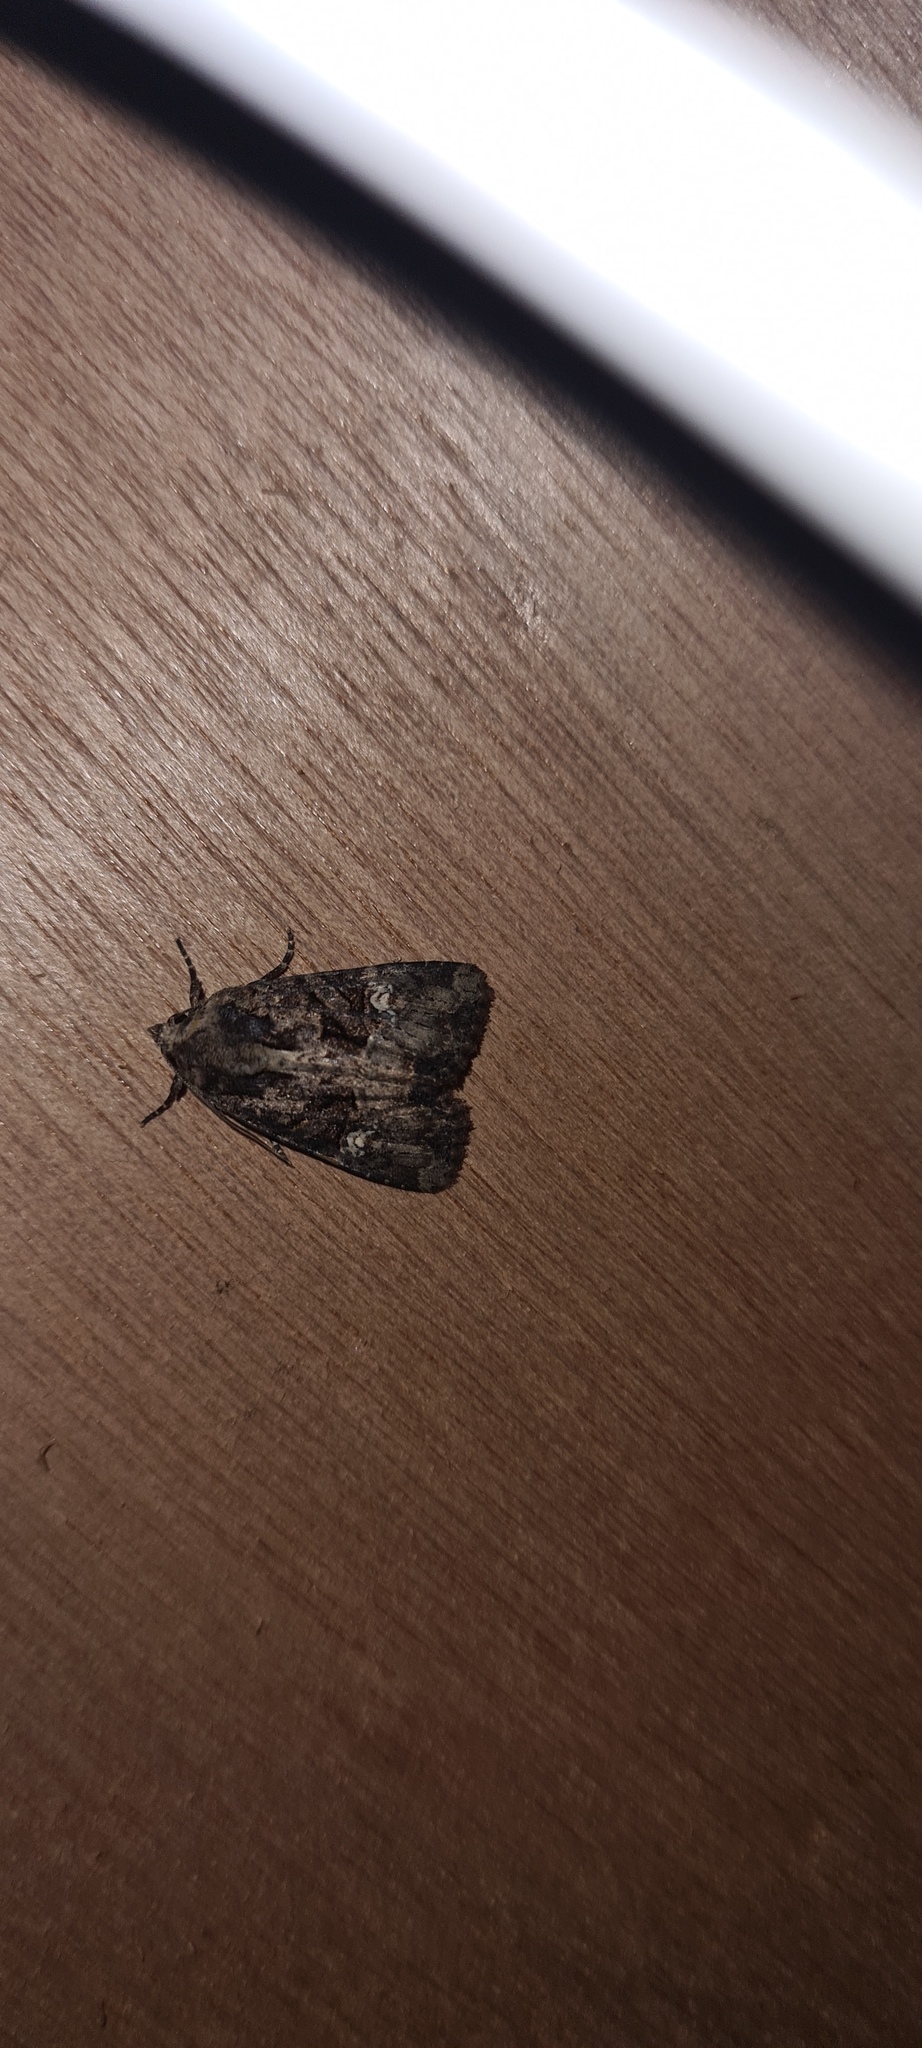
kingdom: Animalia
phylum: Arthropoda
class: Insecta
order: Lepidoptera
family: Noctuidae
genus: Mesapamea
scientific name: Mesapamea
